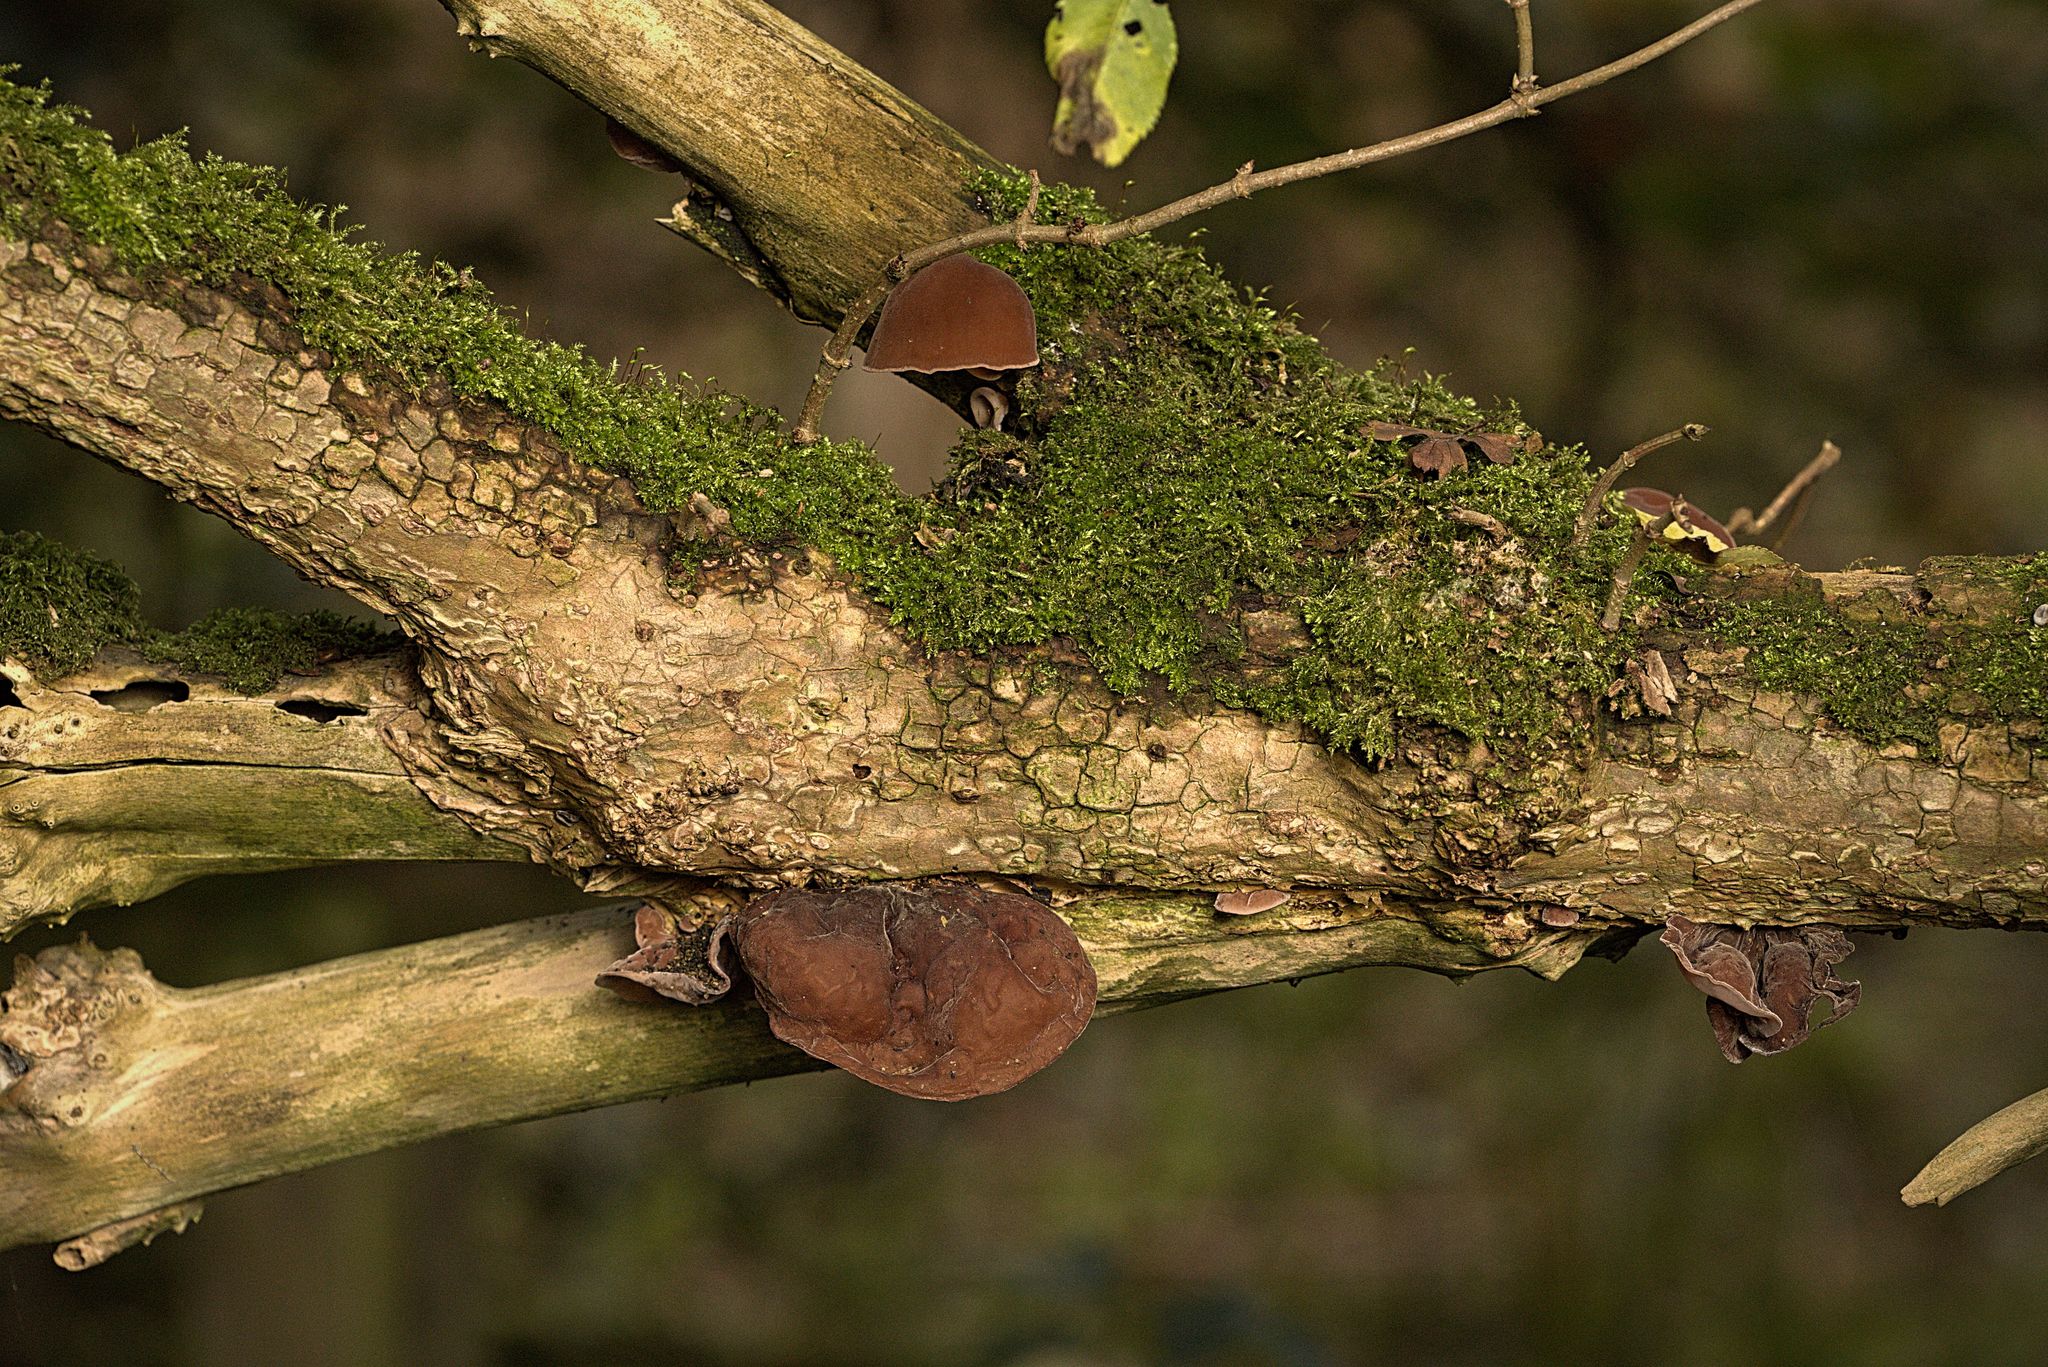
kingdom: Fungi
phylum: Basidiomycota
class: Agaricomycetes
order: Auriculariales
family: Auriculariaceae
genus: Auricularia
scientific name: Auricularia auricula-judae
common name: Jelly ear
